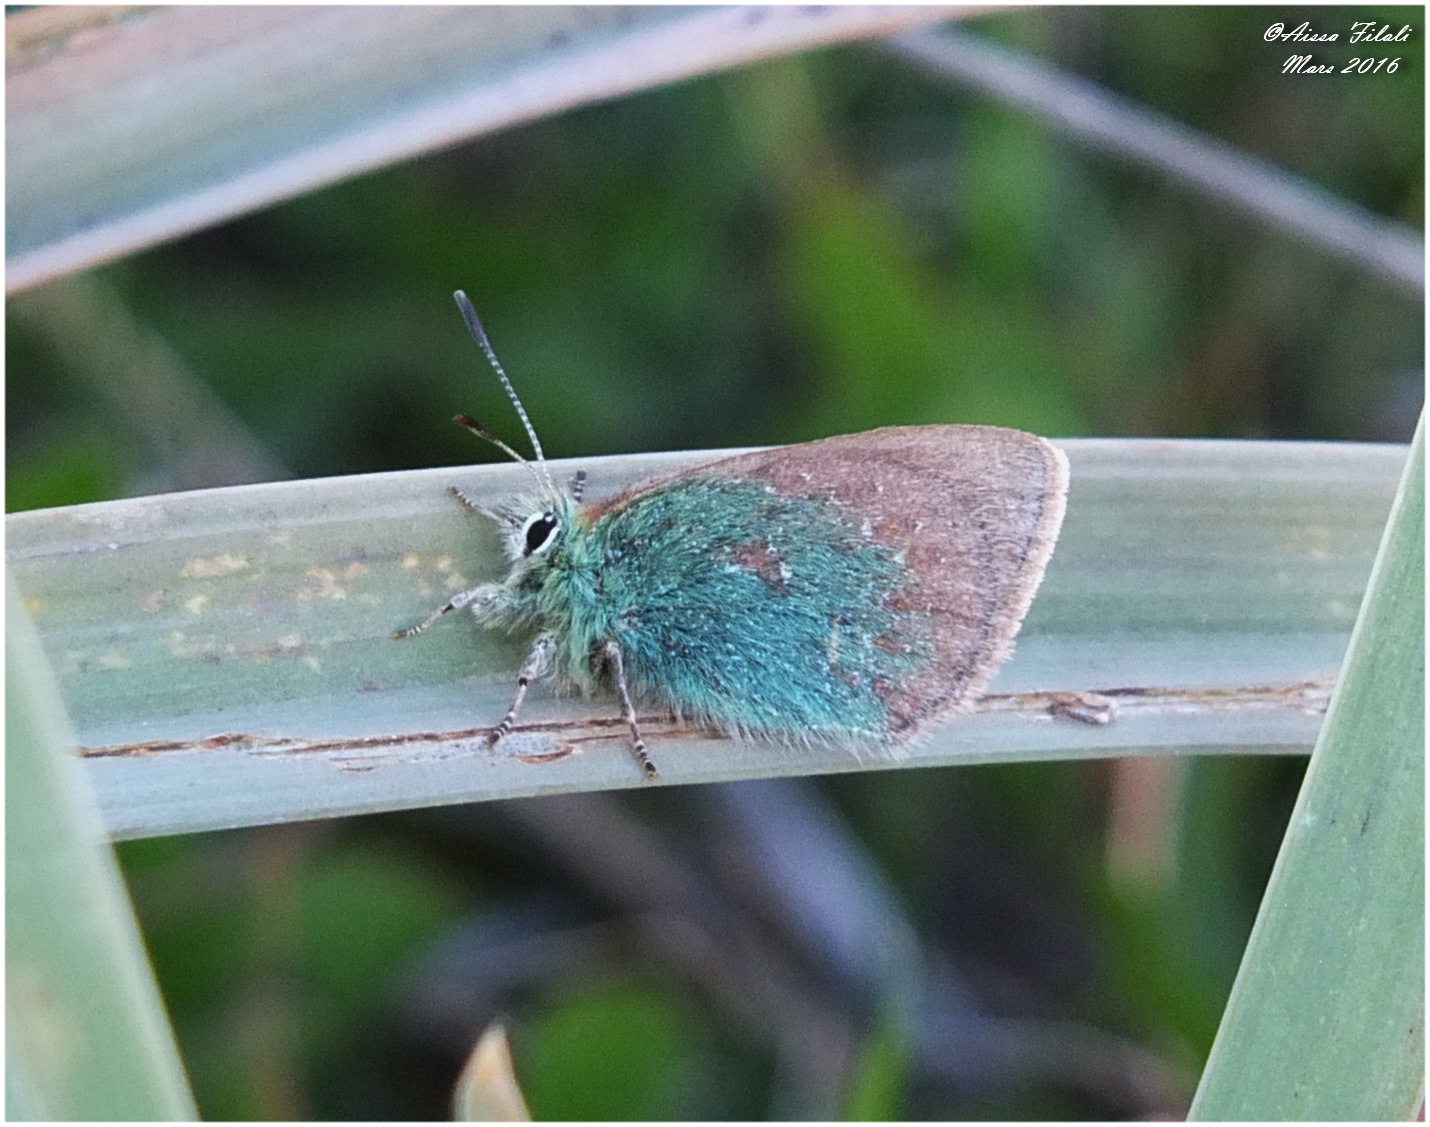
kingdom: Animalia
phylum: Arthropoda
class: Insecta
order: Lepidoptera
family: Lycaenidae
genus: Tomares
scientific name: Tomares ballus
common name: Provence hairstreak
